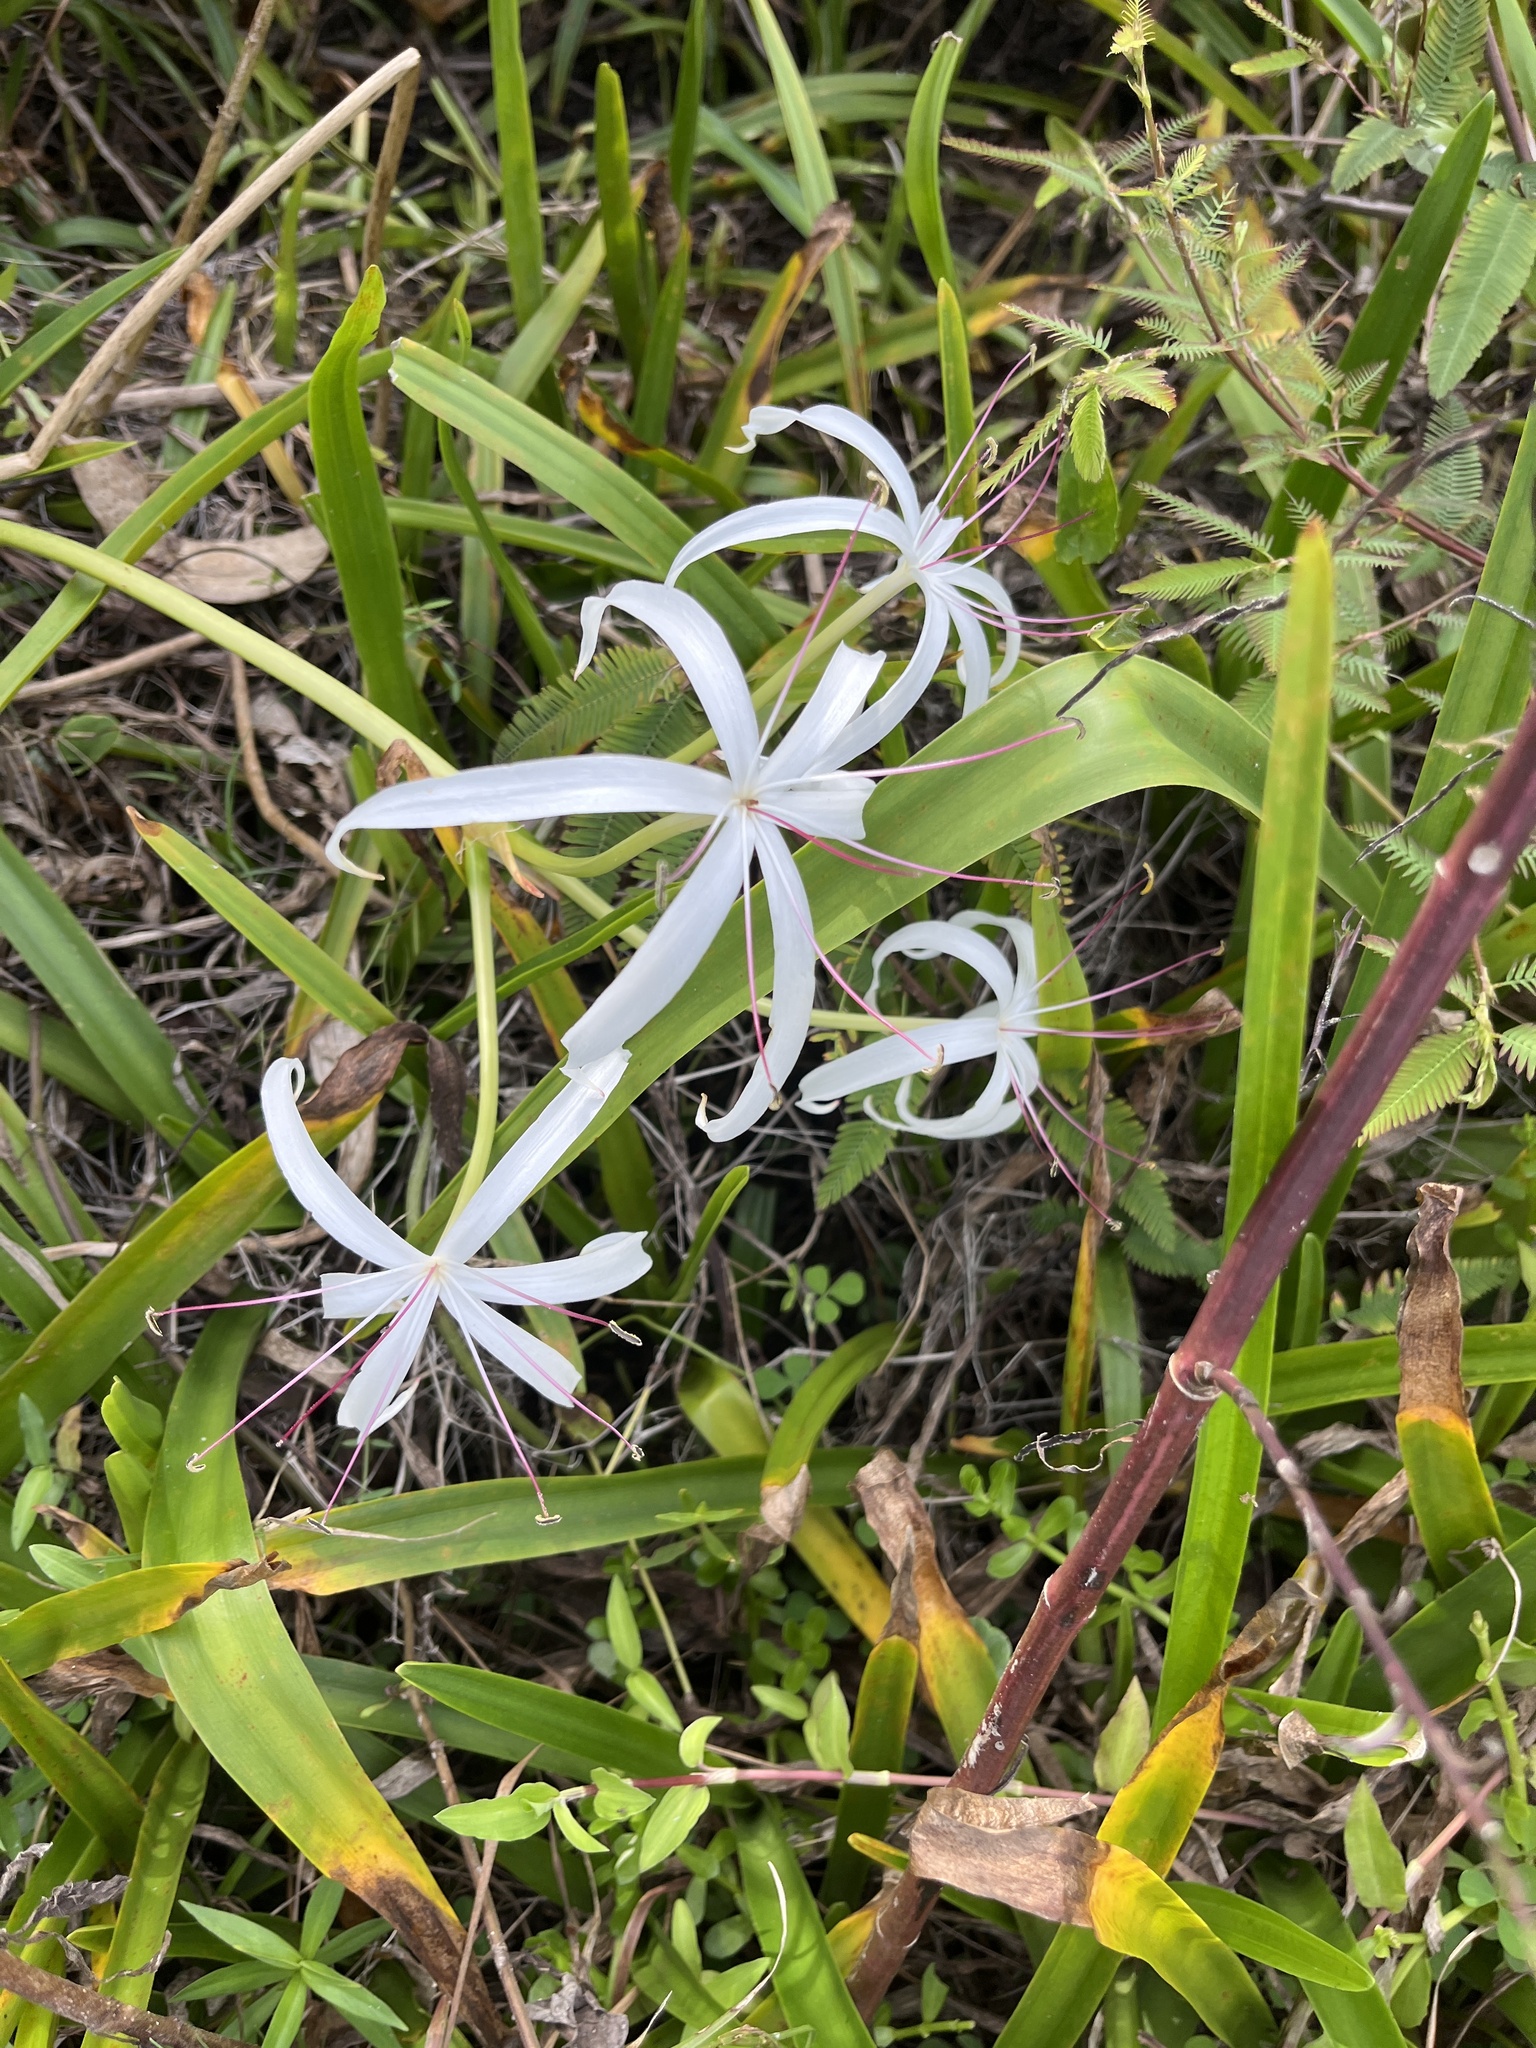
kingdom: Plantae
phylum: Tracheophyta
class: Liliopsida
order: Asparagales
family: Amaryllidaceae
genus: Crinum
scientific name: Crinum americanum
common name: Florida swamp-lily
